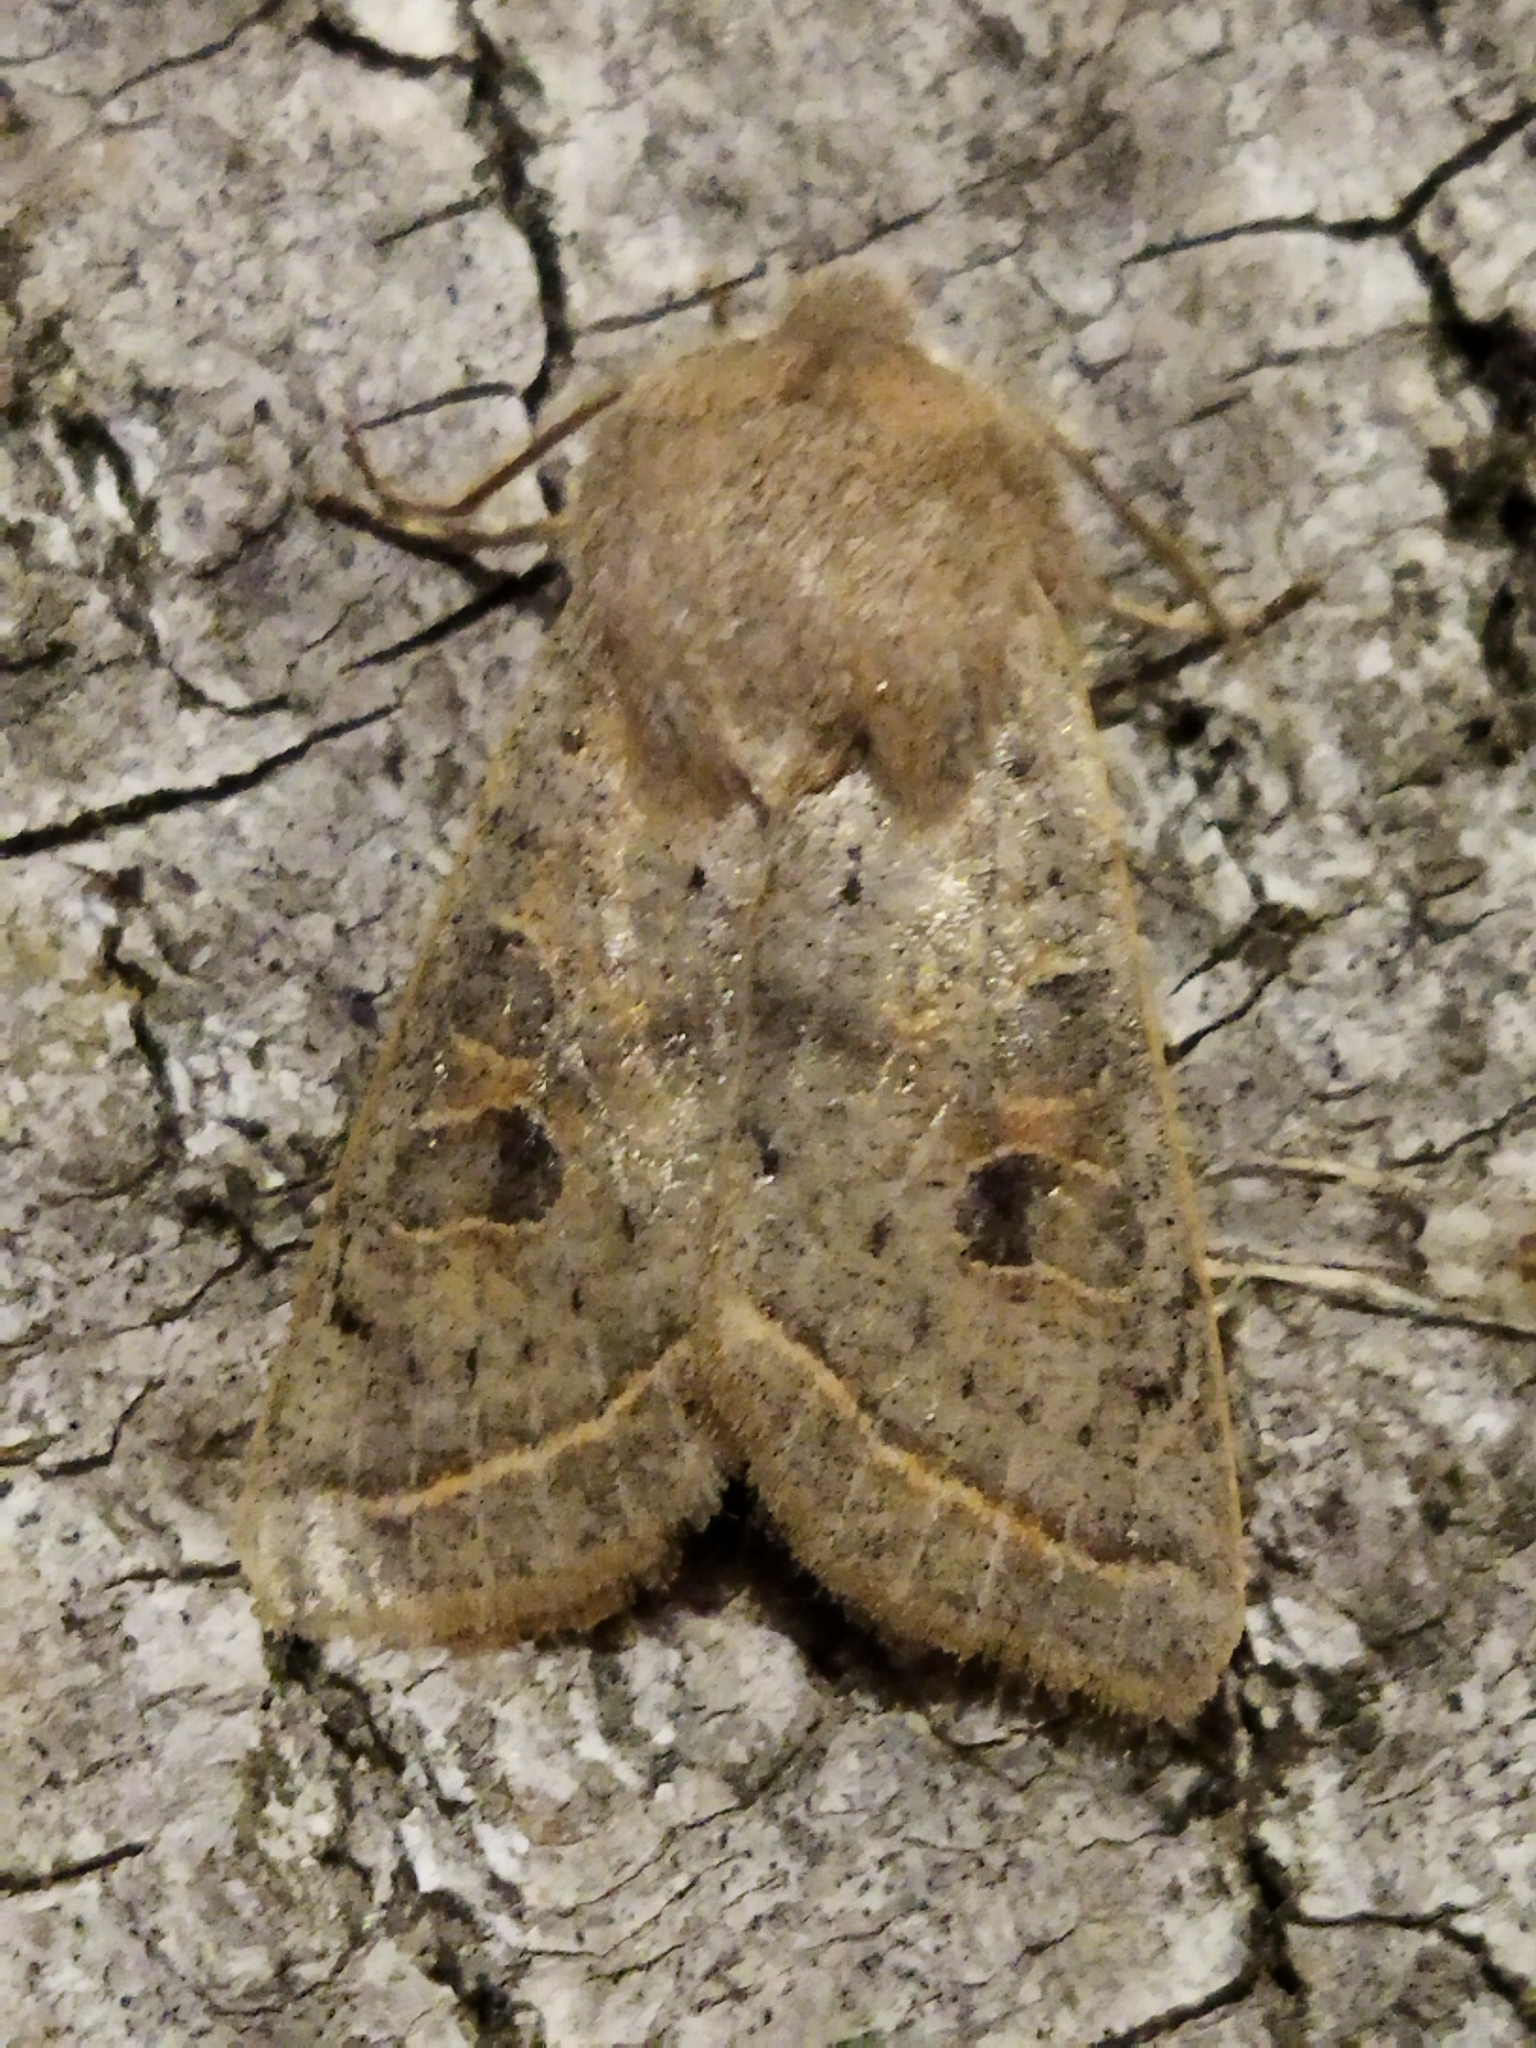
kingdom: Animalia
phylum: Arthropoda
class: Insecta
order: Lepidoptera
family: Noctuidae
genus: Orthosia
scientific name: Orthosia gracilis
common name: Powdered quaker
